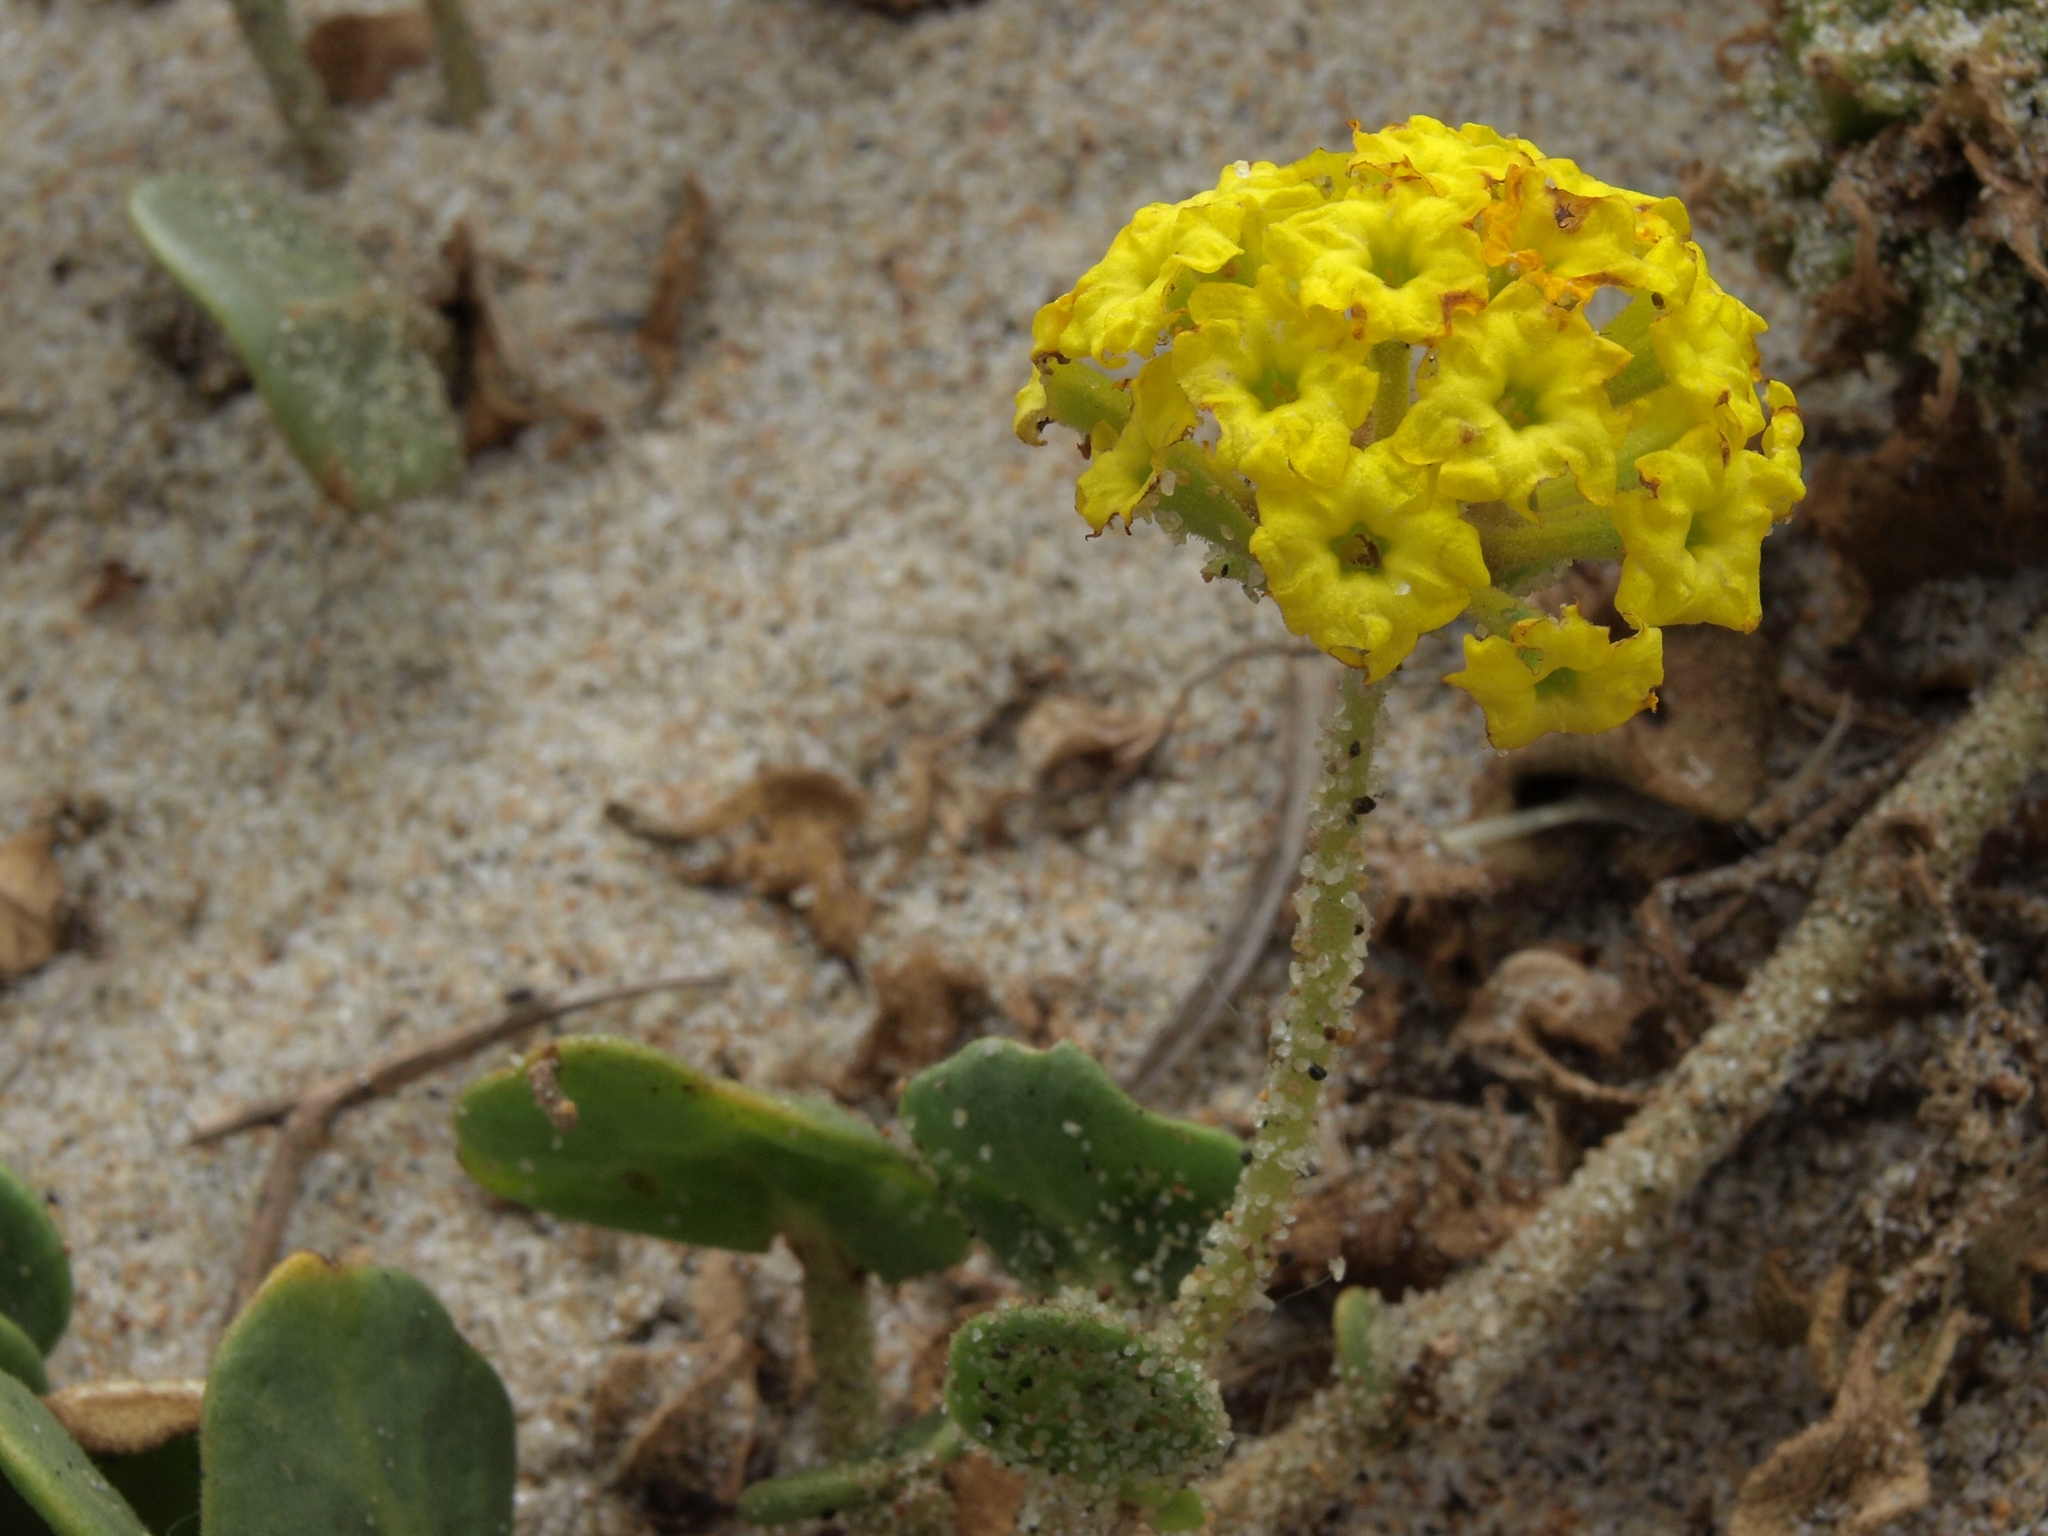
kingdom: Plantae
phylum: Tracheophyta
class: Magnoliopsida
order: Caryophyllales
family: Nyctaginaceae
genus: Abronia
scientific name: Abronia latifolia
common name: Yellow sand-verbena
